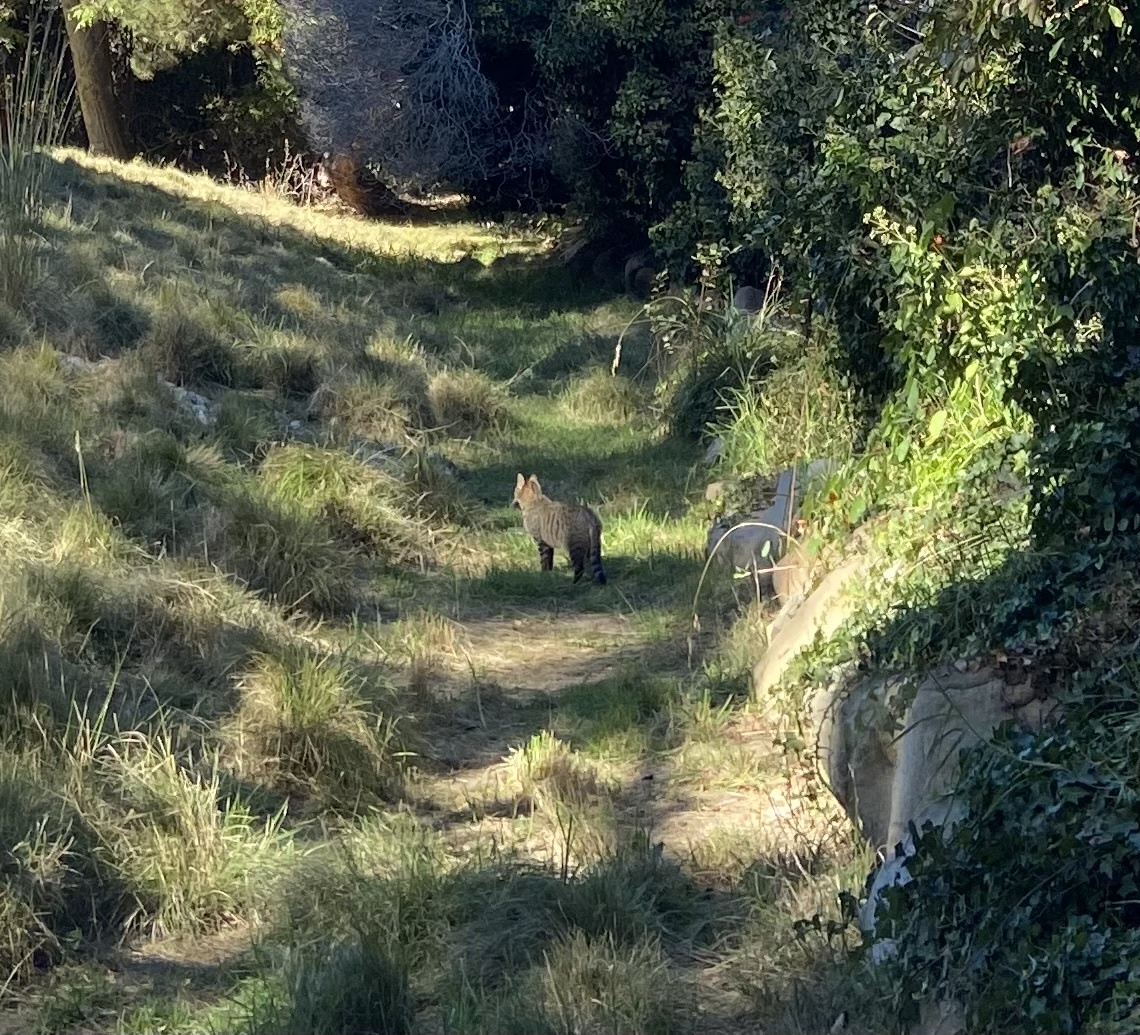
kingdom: Animalia
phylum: Chordata
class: Mammalia
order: Carnivora
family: Felidae
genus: Felis
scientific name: Felis catus
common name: Domestic cat
